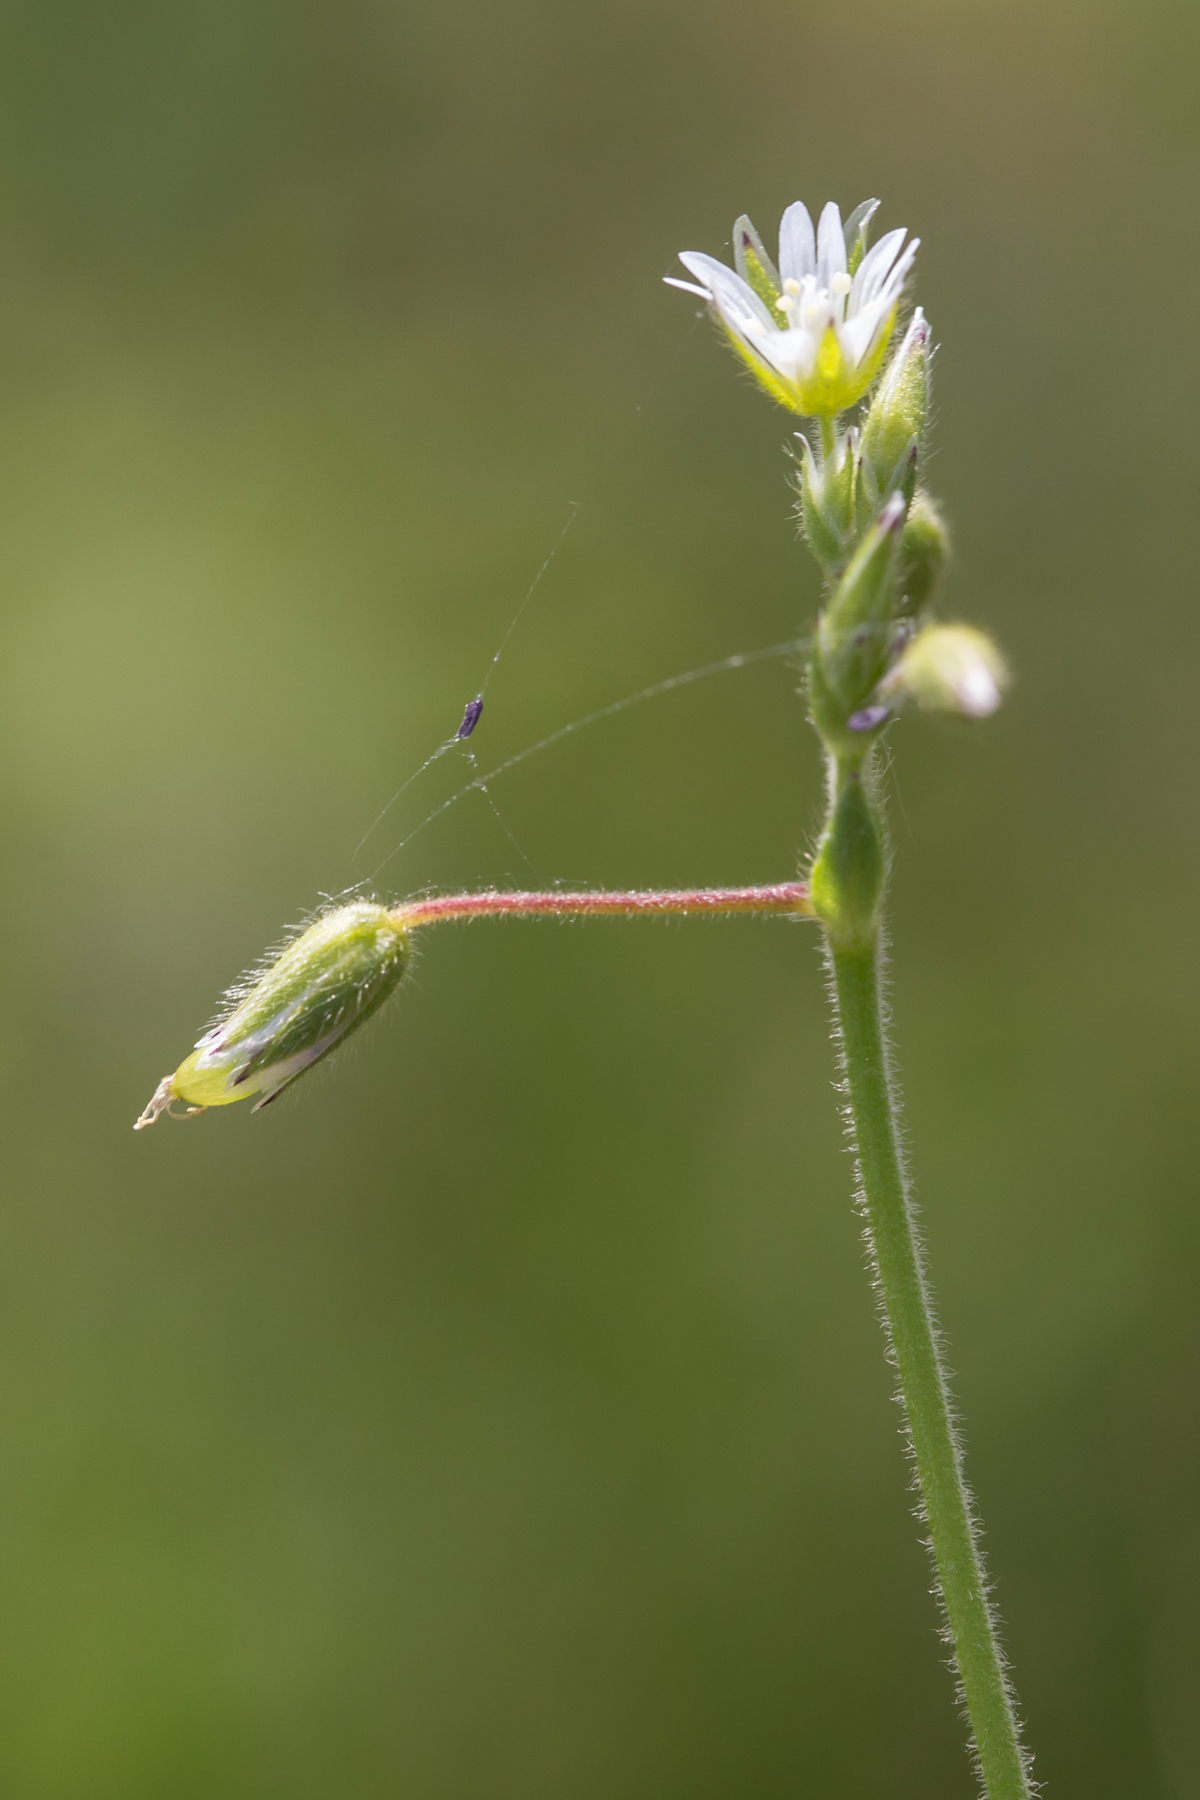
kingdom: Plantae
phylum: Tracheophyta
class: Magnoliopsida
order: Caryophyllales
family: Caryophyllaceae
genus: Cerastium
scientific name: Cerastium fontanum
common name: Common mouse-ear
